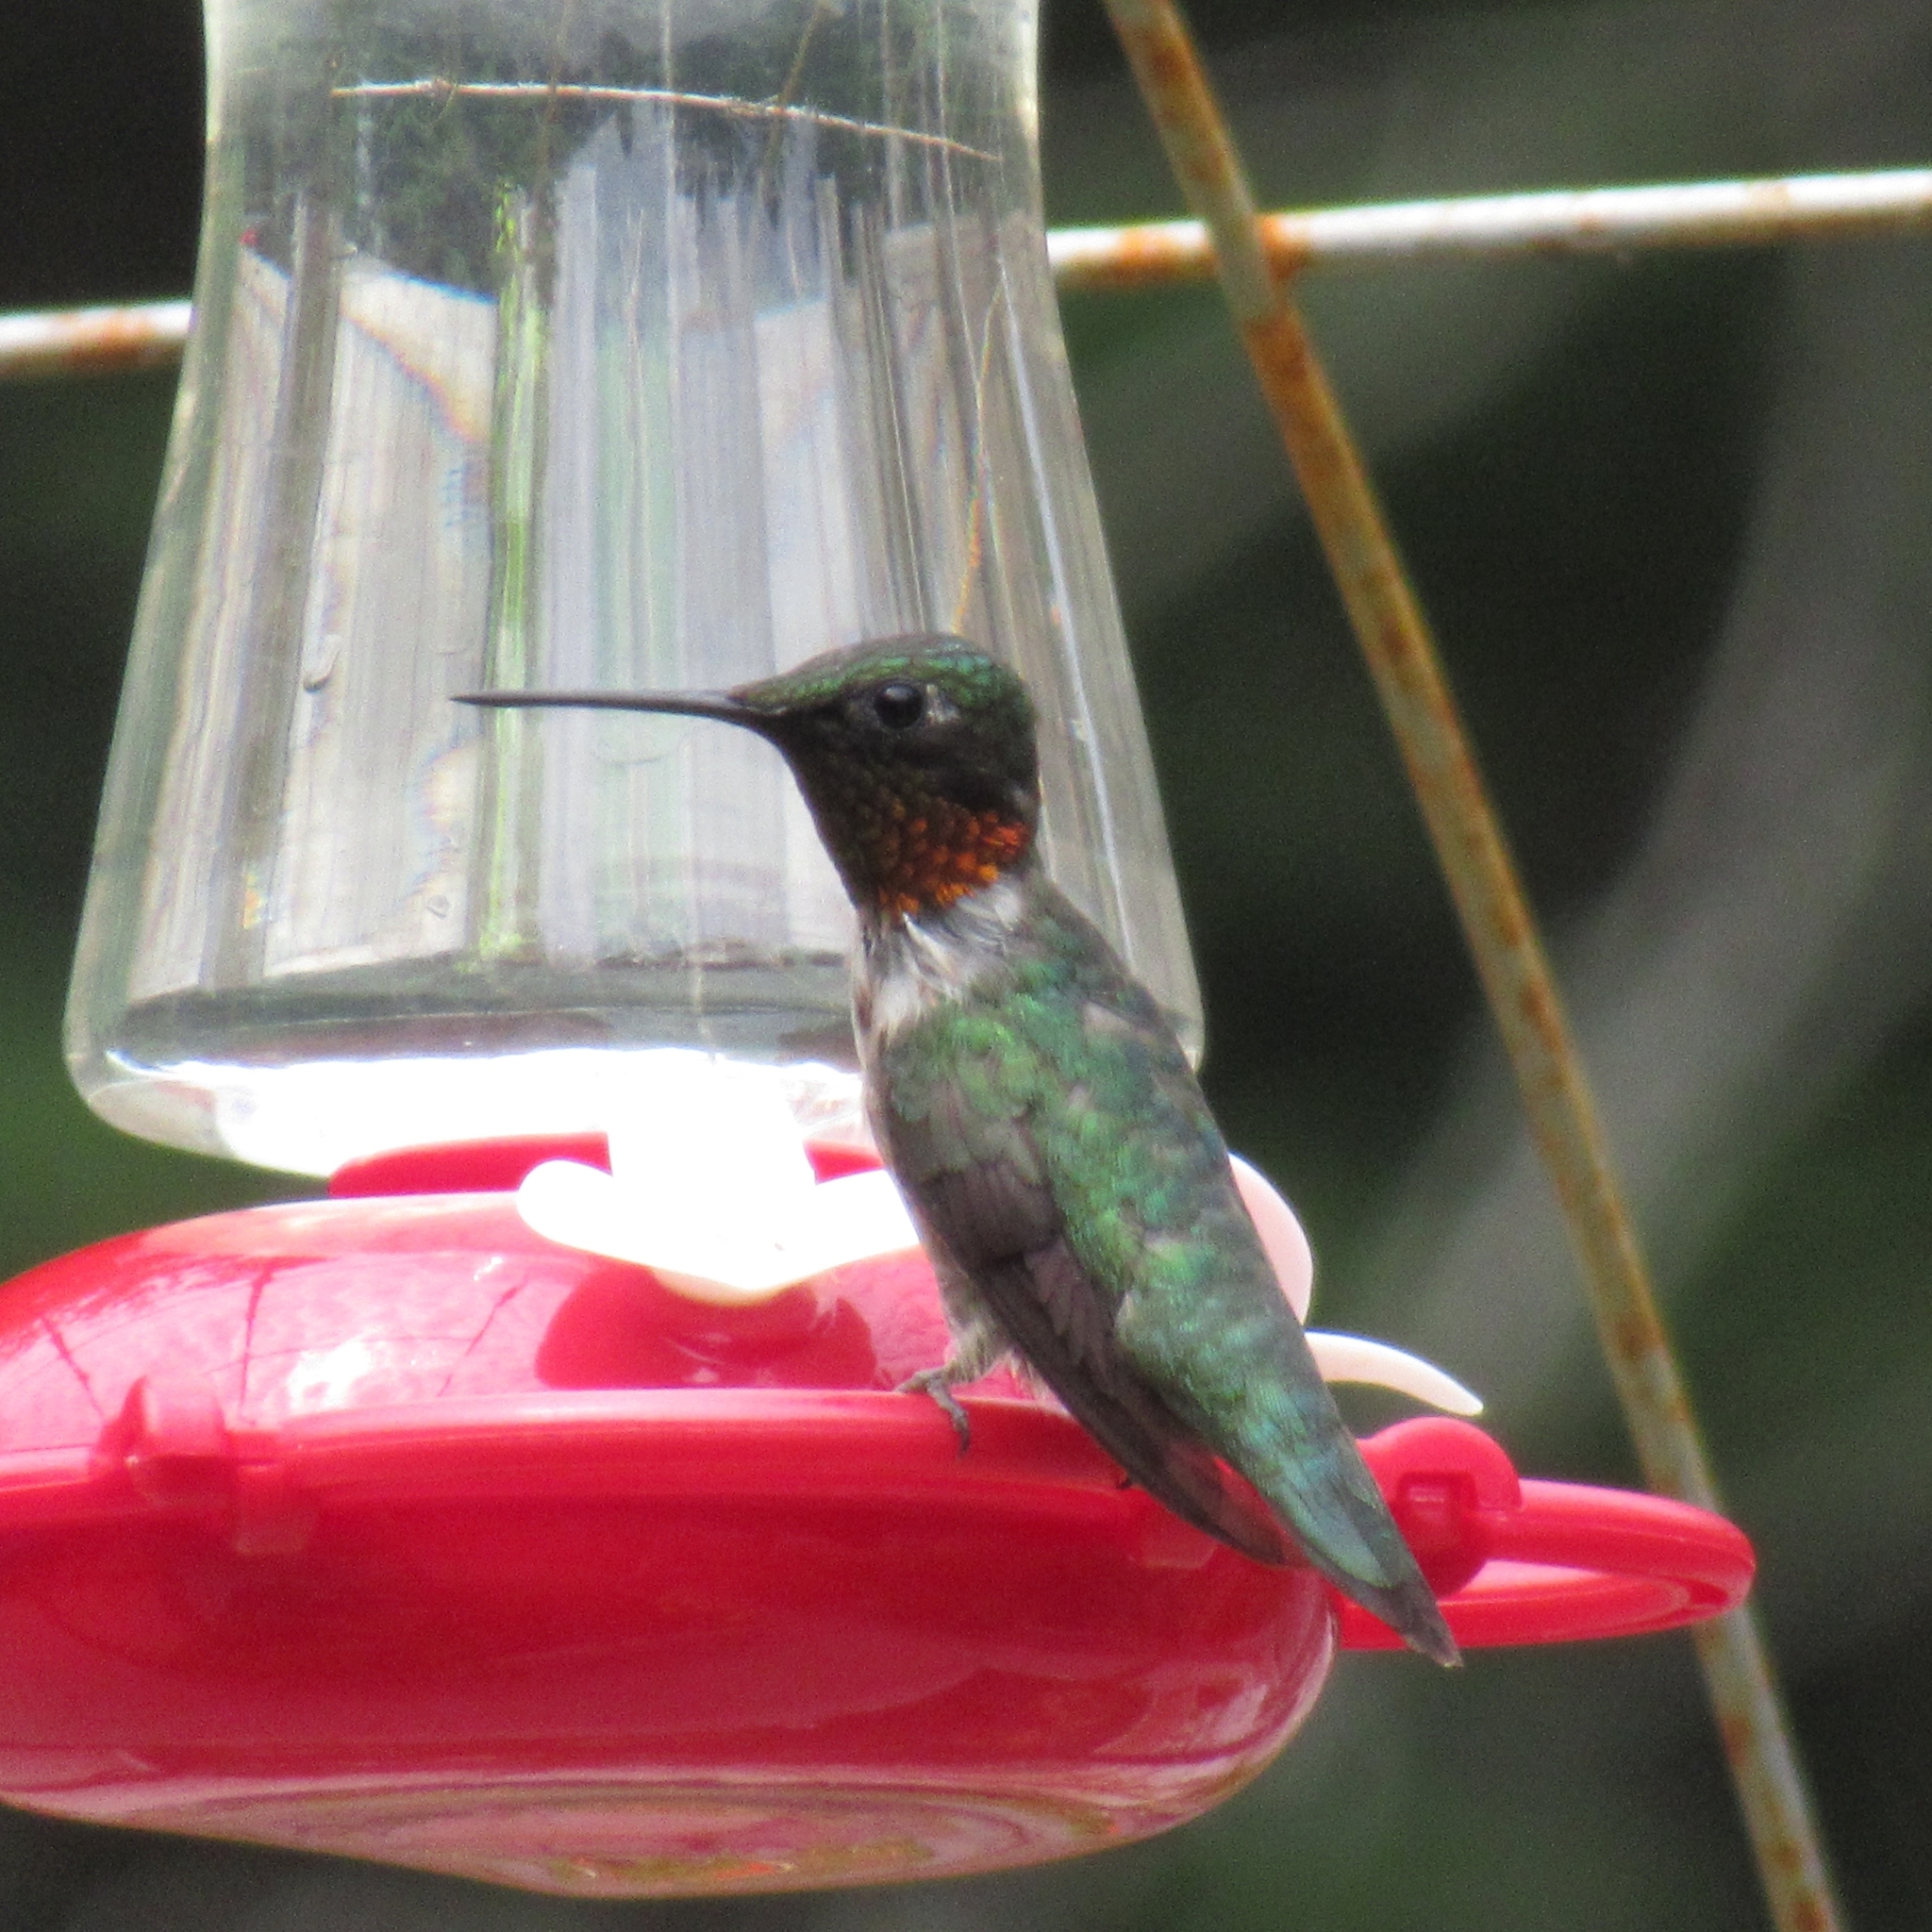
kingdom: Animalia
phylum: Chordata
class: Aves
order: Apodiformes
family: Trochilidae
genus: Archilochus
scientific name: Archilochus colubris
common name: Ruby-throated hummingbird
